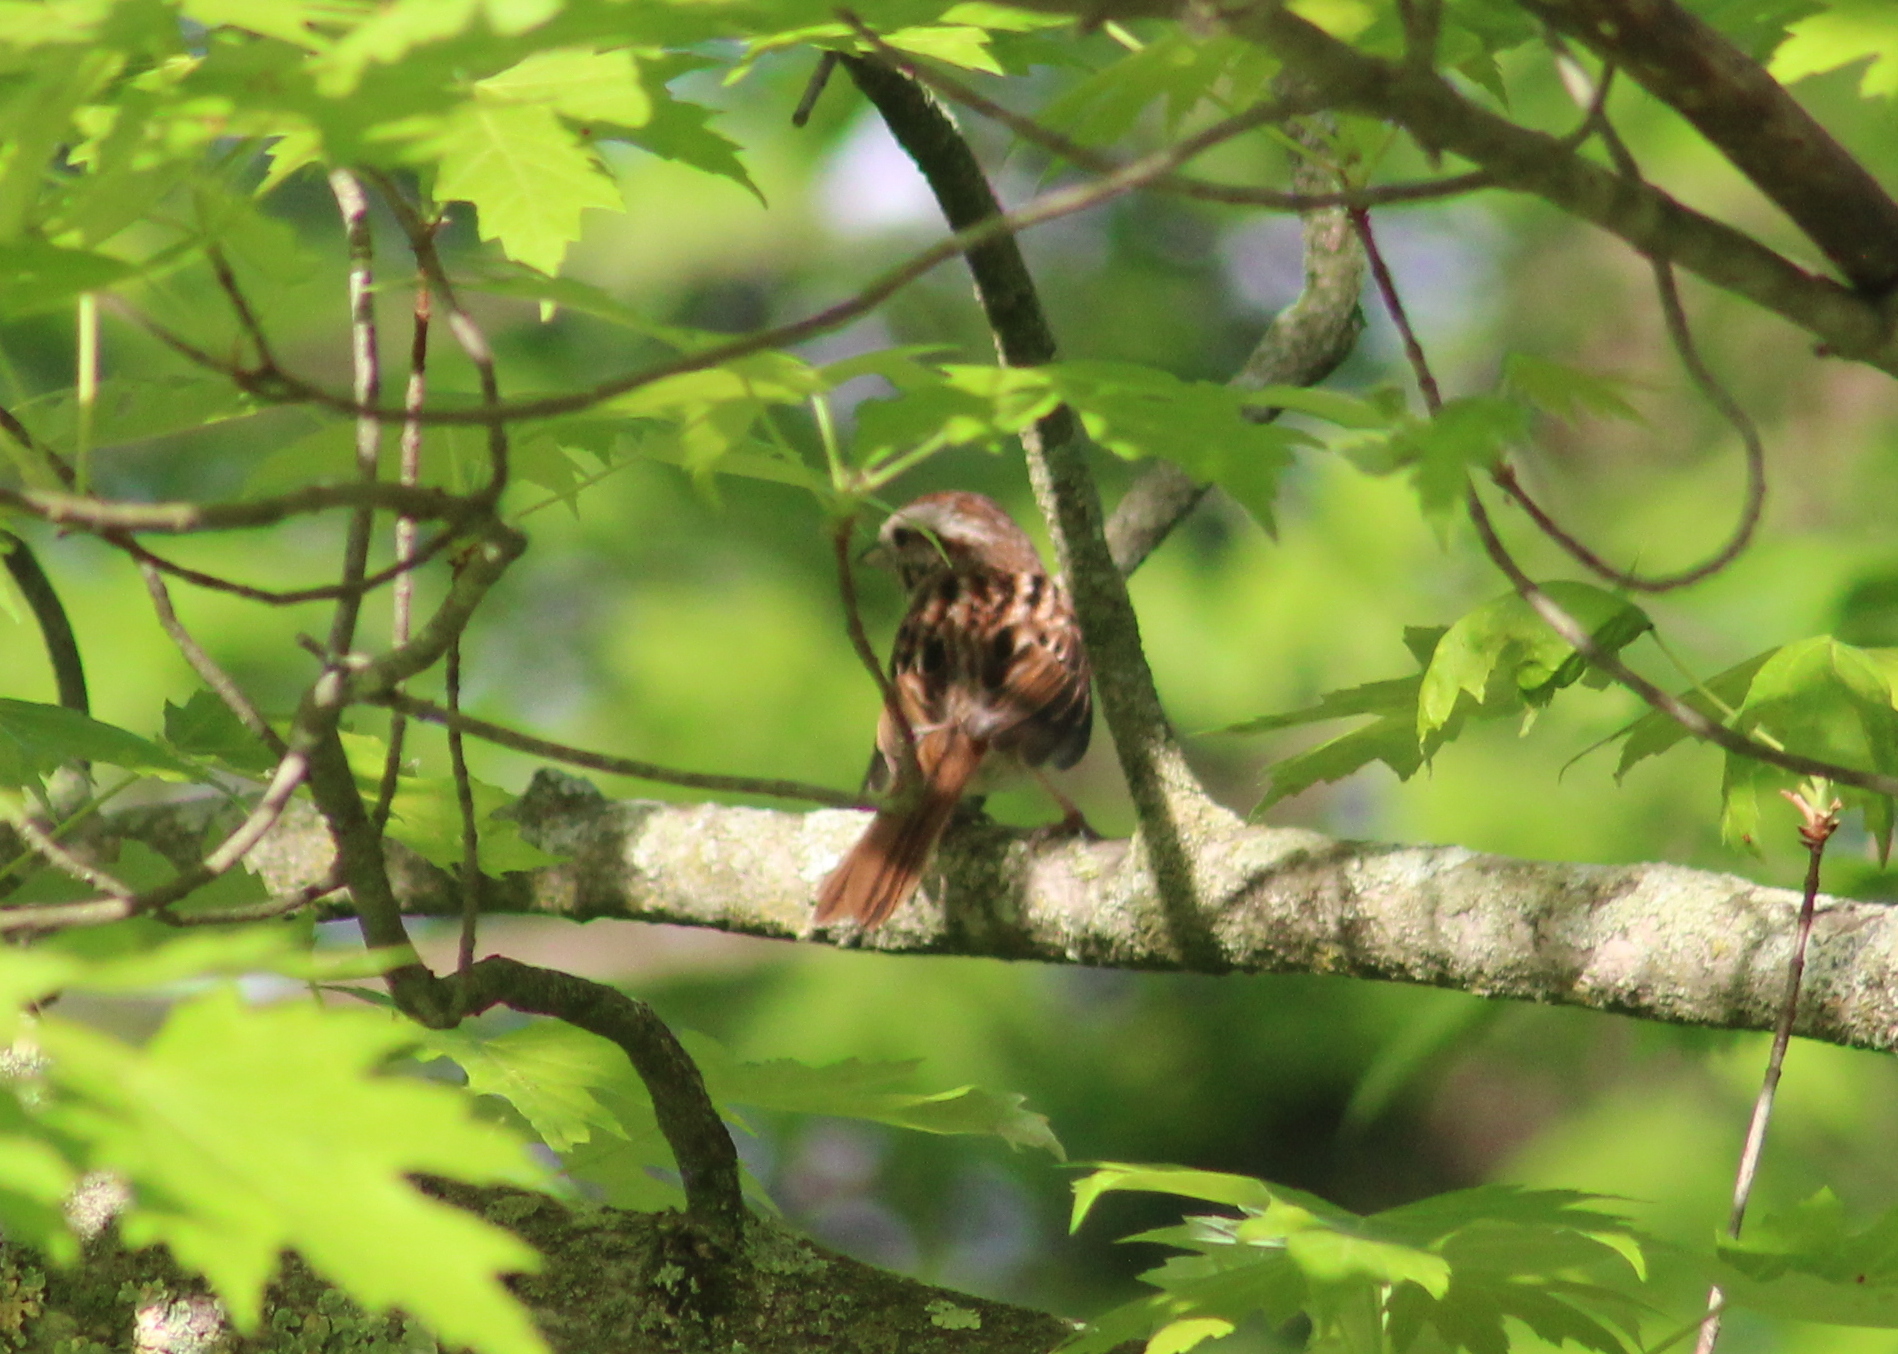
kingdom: Animalia
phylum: Chordata
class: Aves
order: Passeriformes
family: Passerellidae
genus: Melospiza
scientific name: Melospiza melodia
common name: Song sparrow
